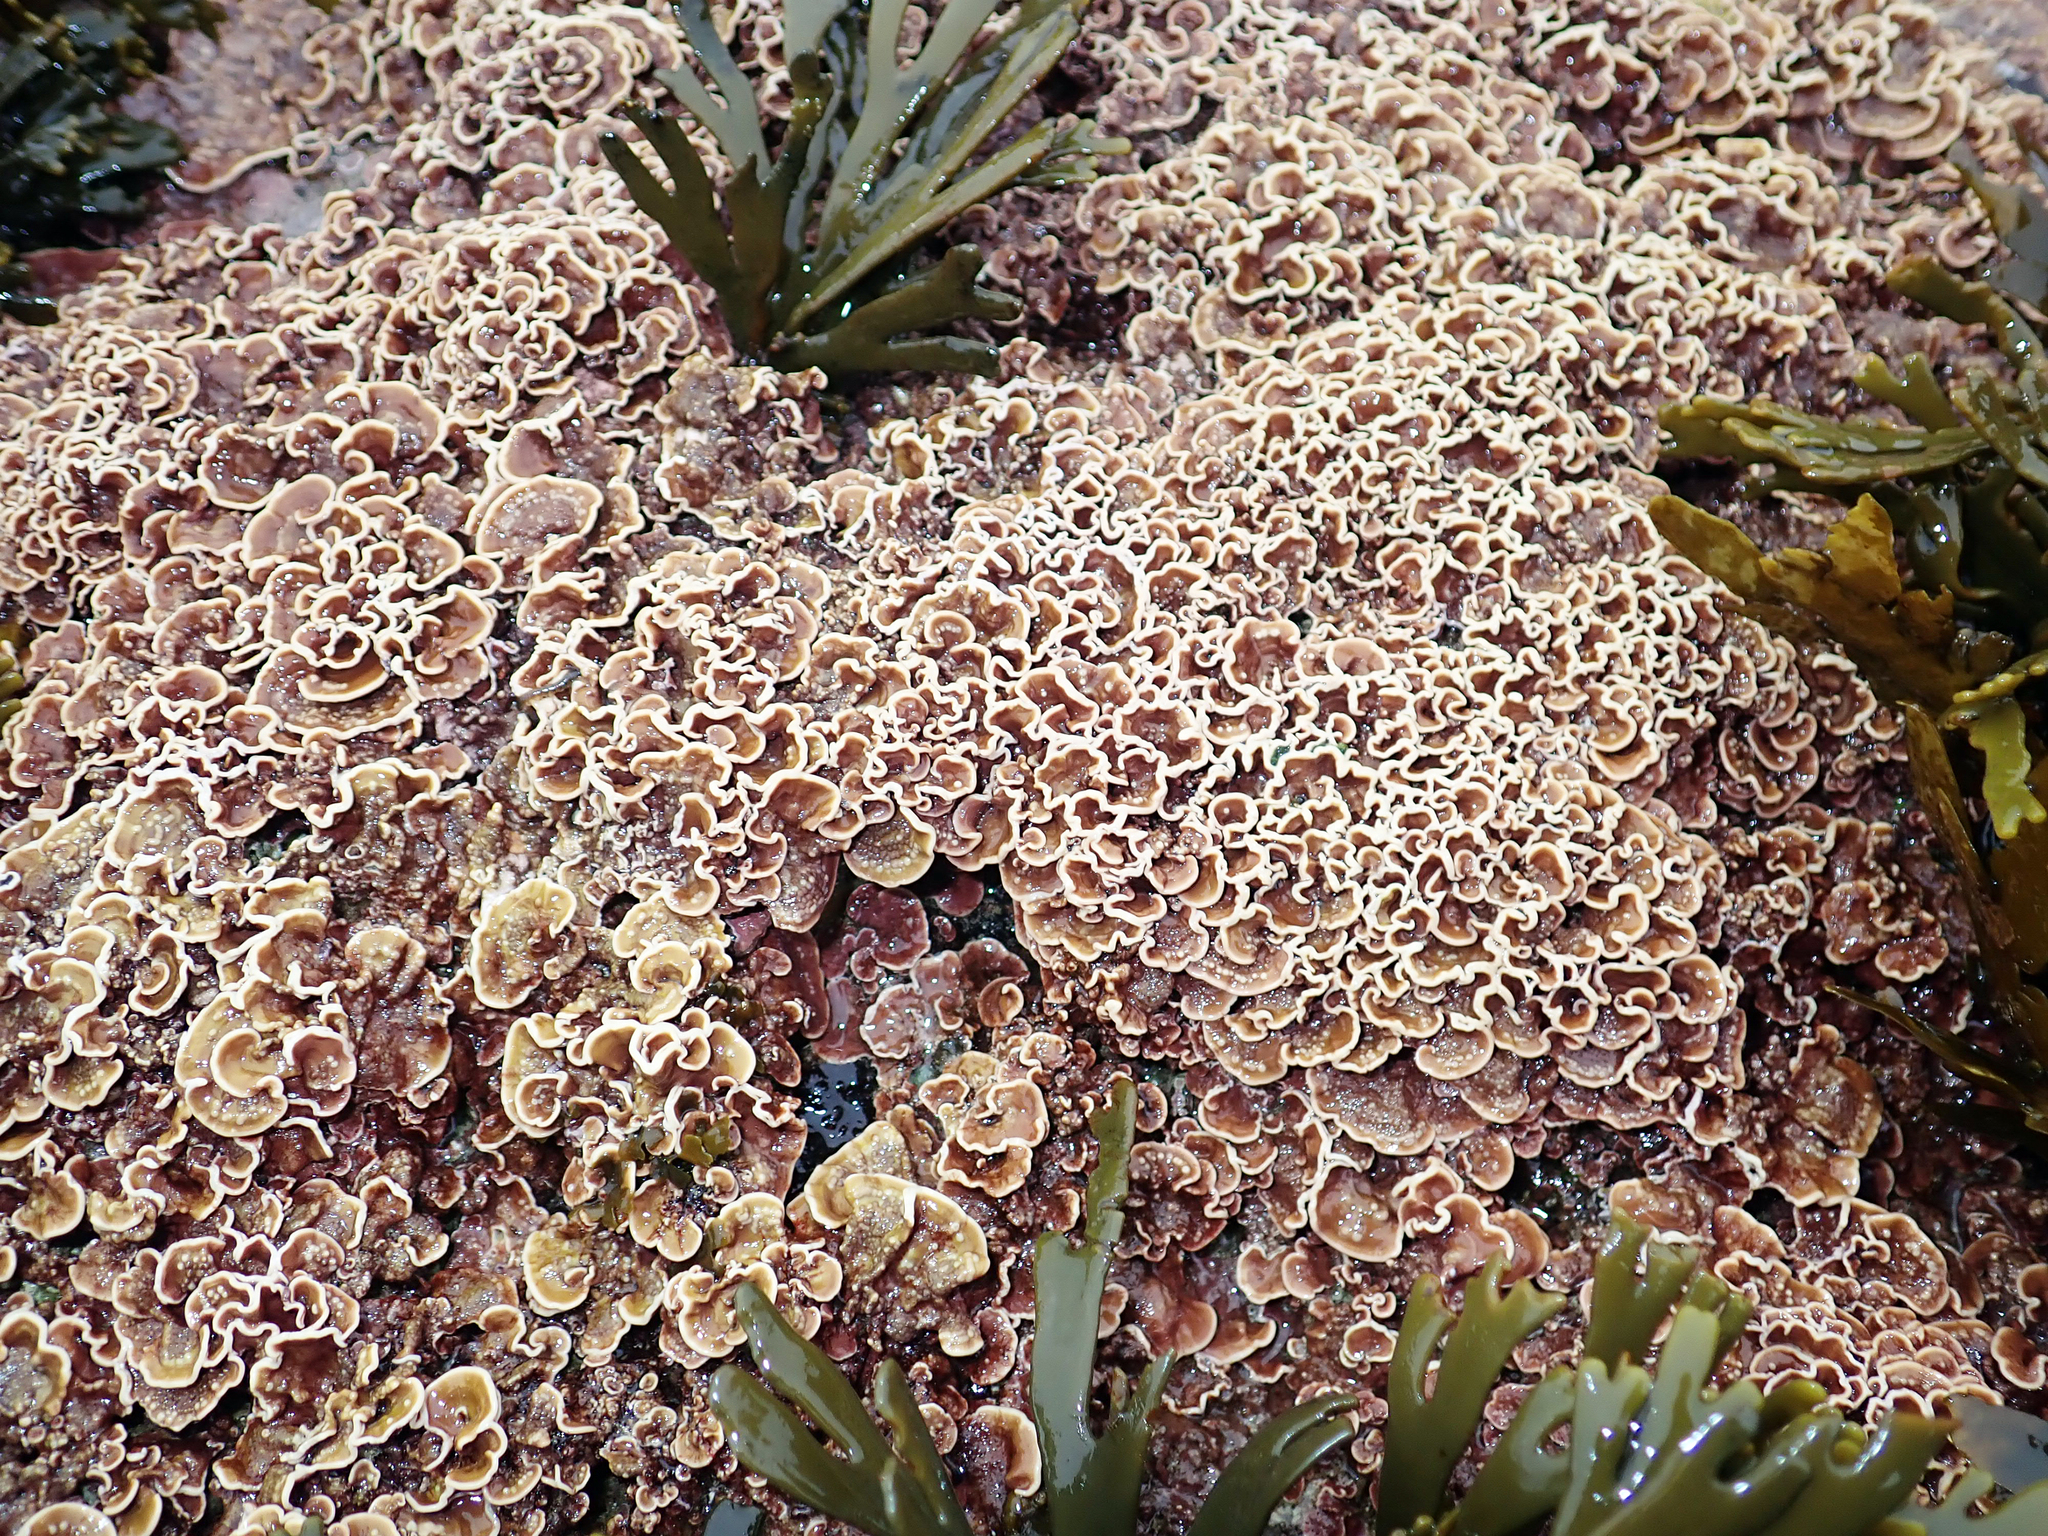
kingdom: Plantae
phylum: Rhodophyta
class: Florideophyceae
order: Corallinales
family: Mesophyllumaceae
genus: Mesophyllum
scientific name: Mesophyllum engelhartii
